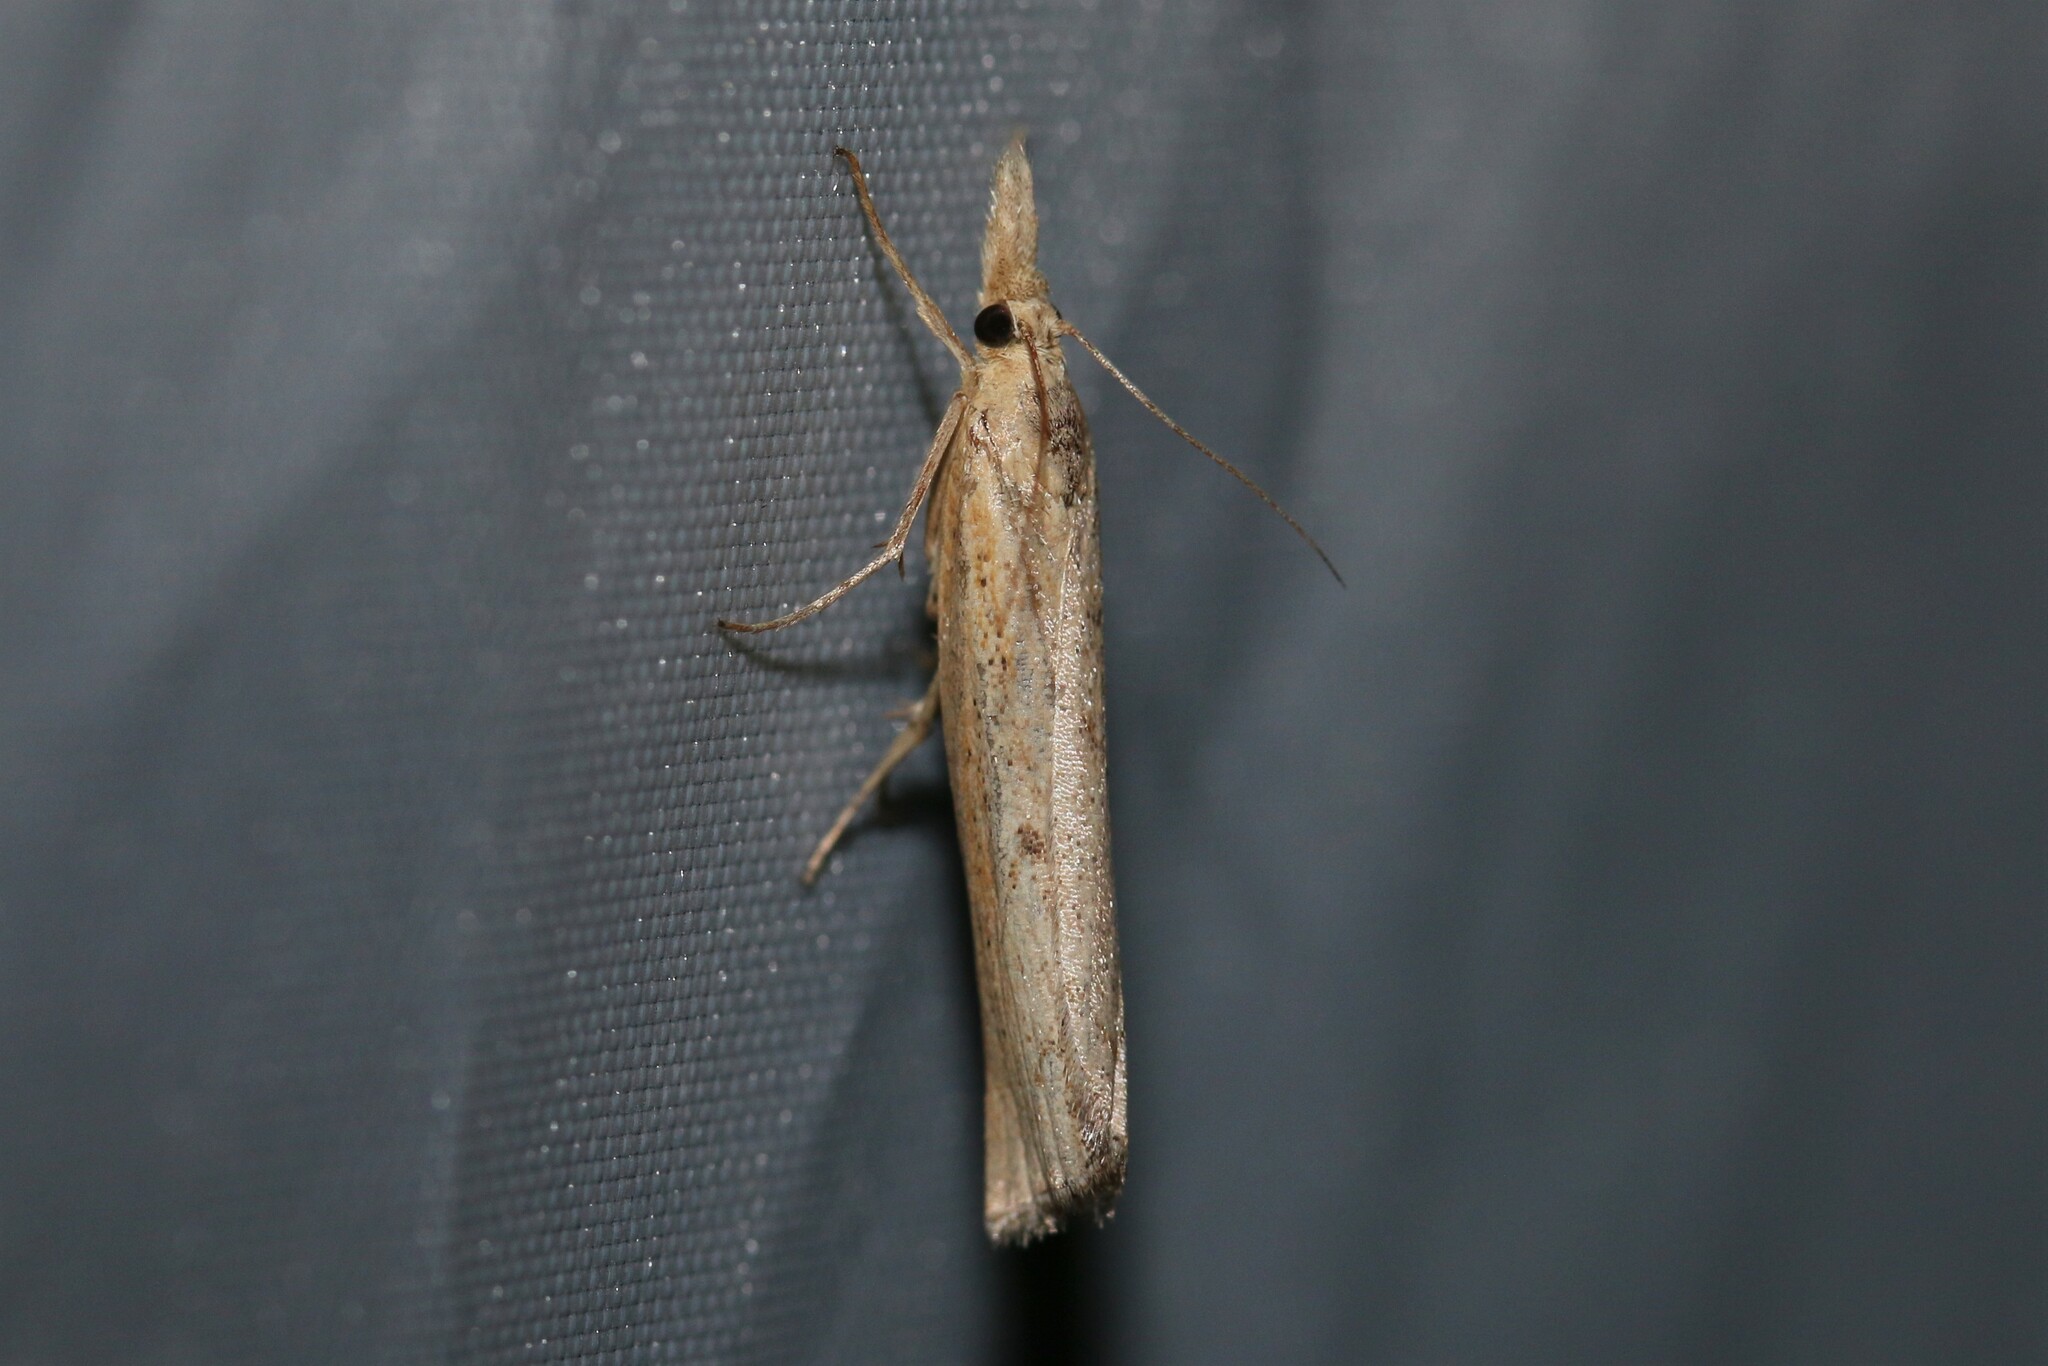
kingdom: Animalia
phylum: Arthropoda
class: Insecta
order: Lepidoptera
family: Crambidae
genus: Pediasia
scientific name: Pediasia contaminella
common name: Waste grass-veneer
